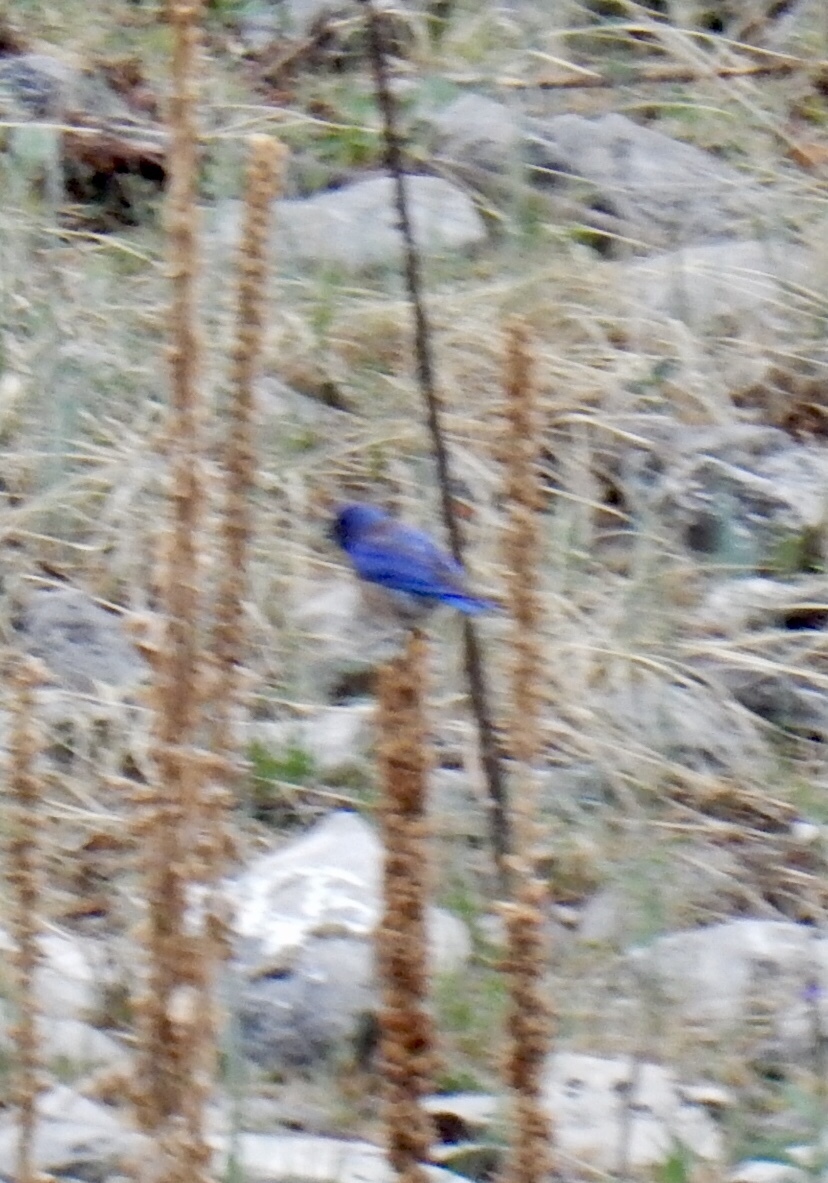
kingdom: Animalia
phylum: Chordata
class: Aves
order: Passeriformes
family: Turdidae
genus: Sialia
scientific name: Sialia mexicana
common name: Western bluebird
